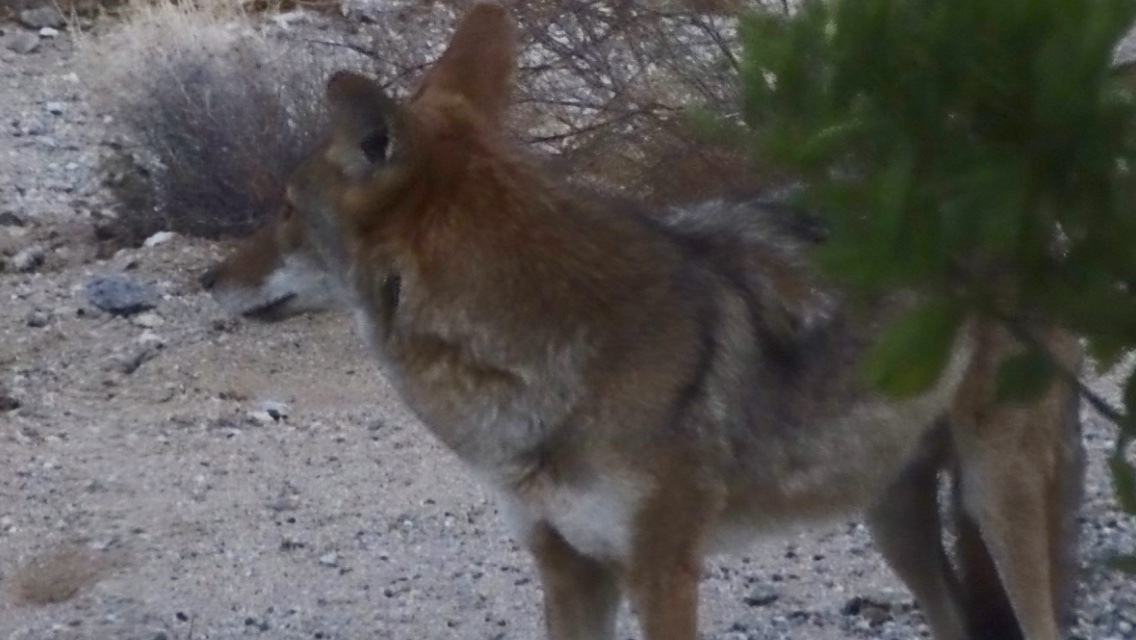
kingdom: Animalia
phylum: Chordata
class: Mammalia
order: Carnivora
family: Canidae
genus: Canis
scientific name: Canis latrans
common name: Coyote
